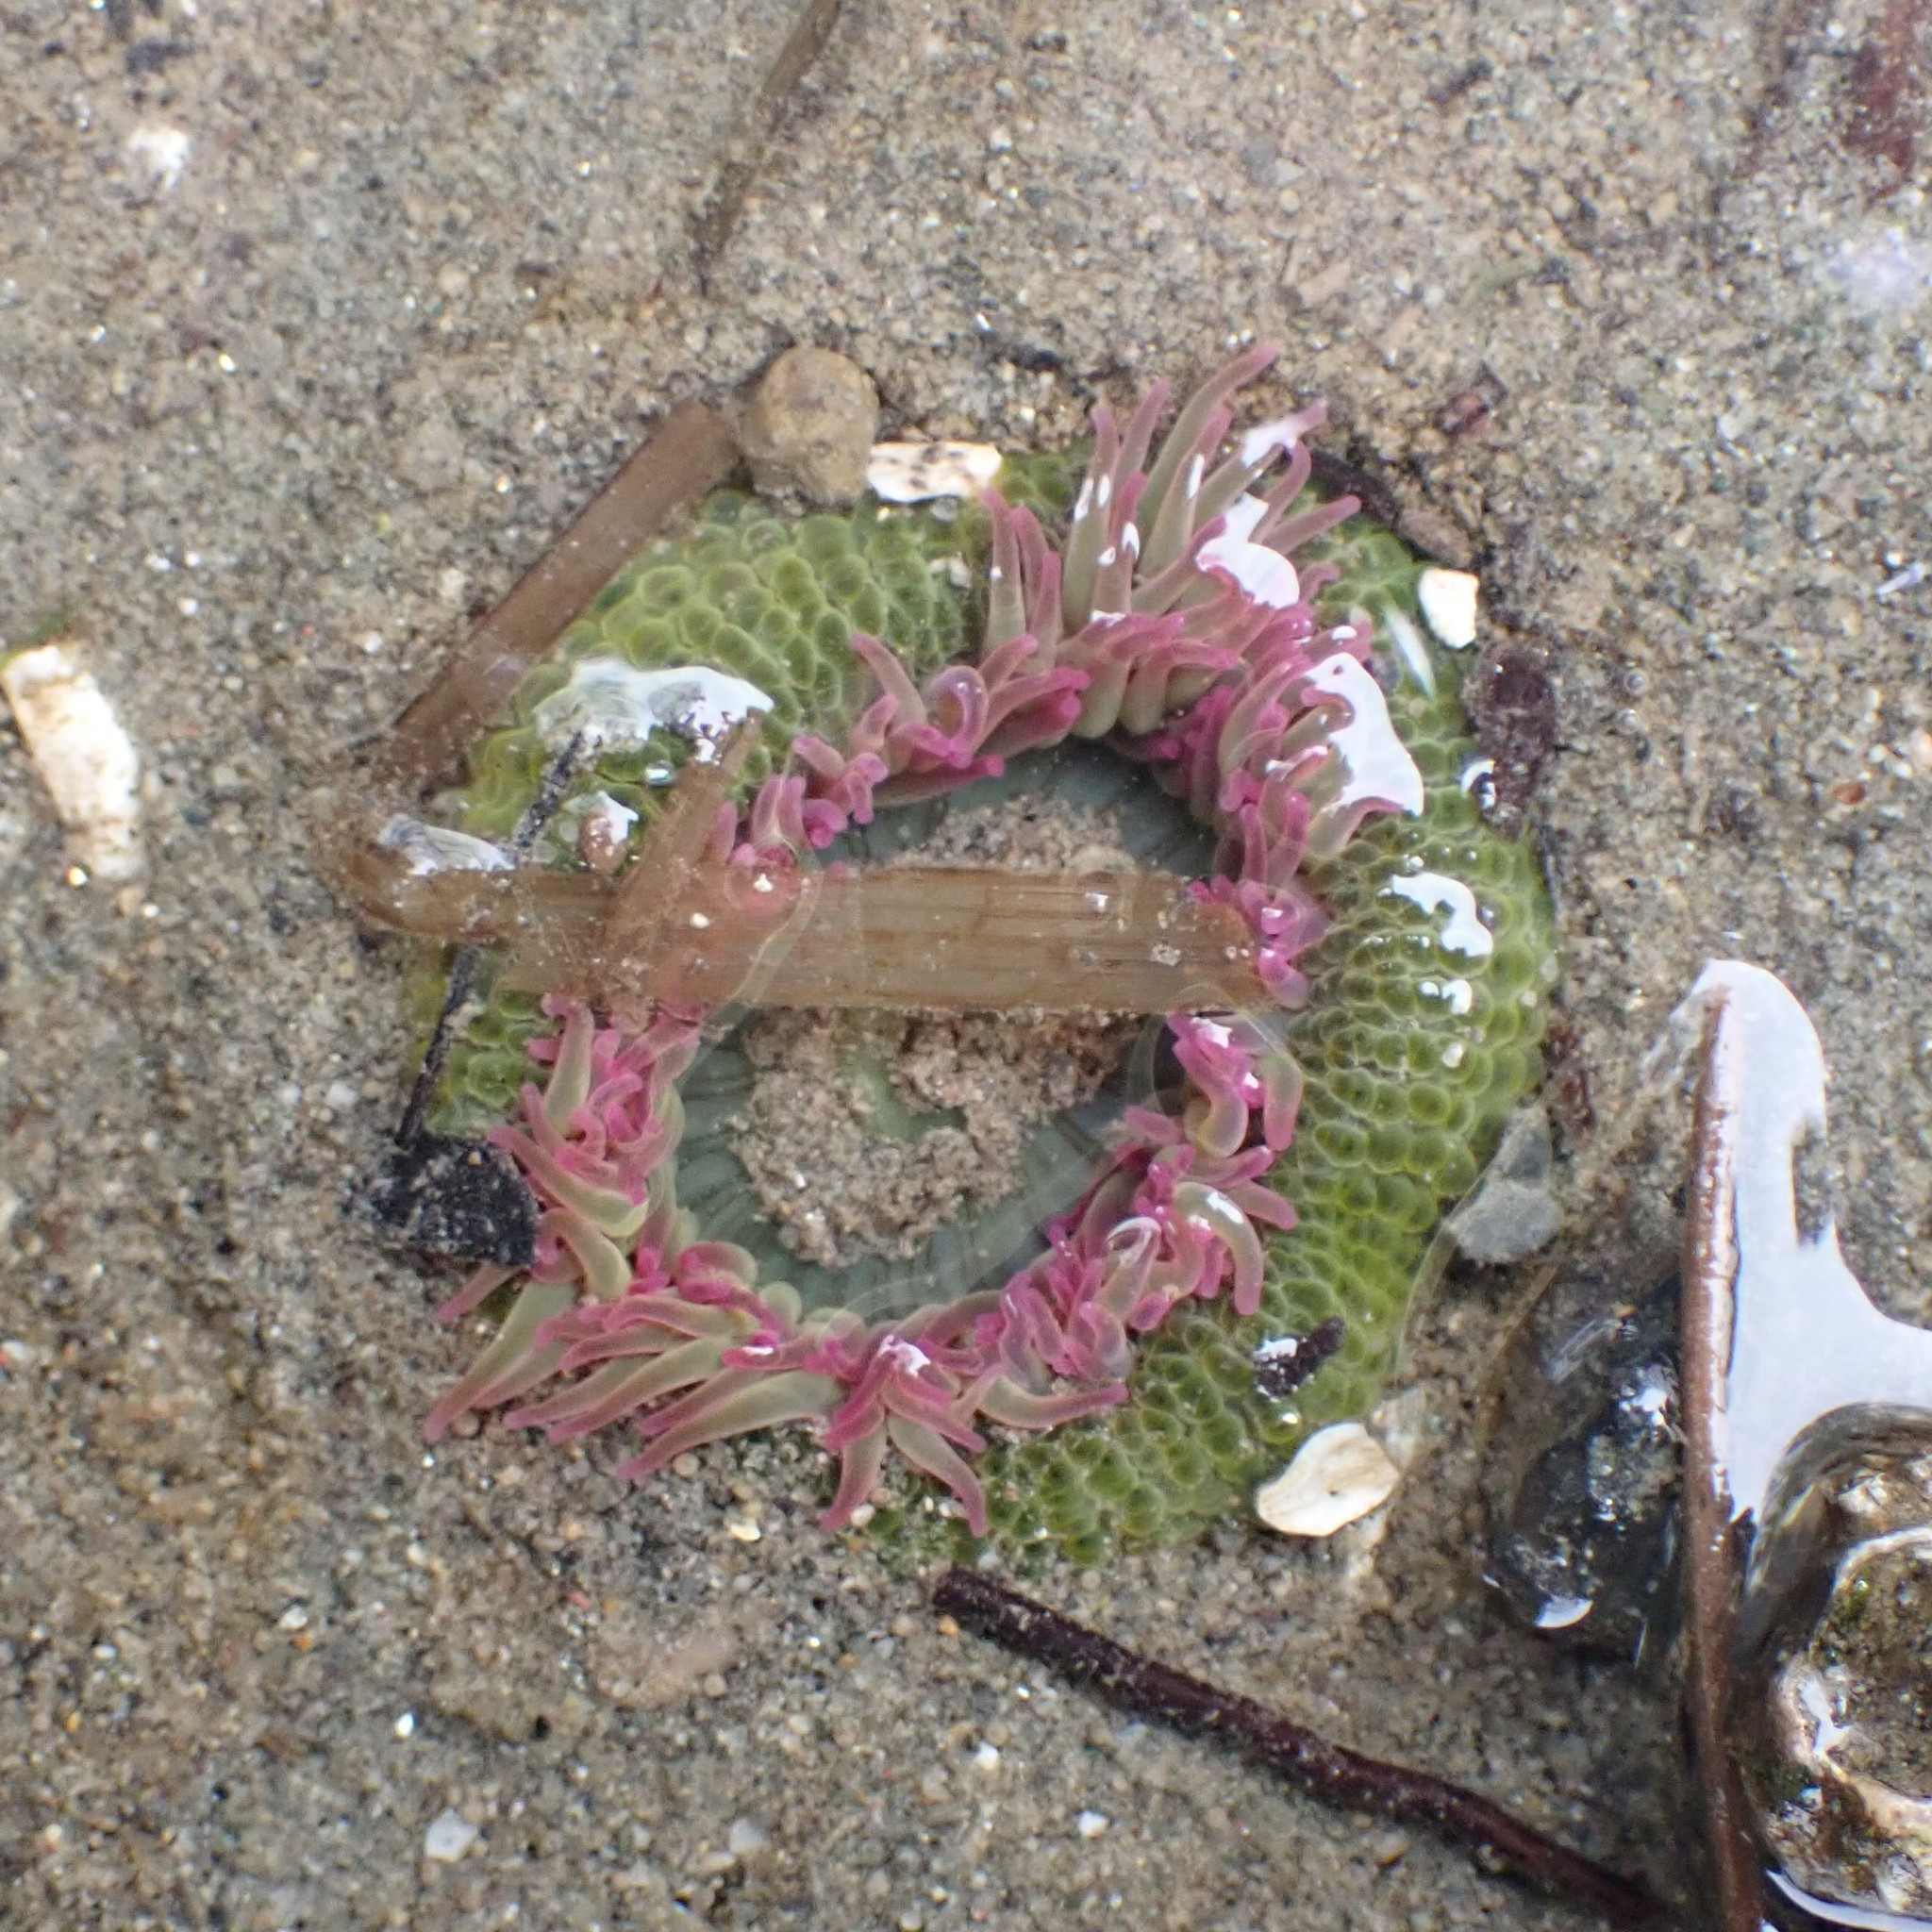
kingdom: Animalia
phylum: Cnidaria
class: Anthozoa
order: Actiniaria
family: Actiniidae
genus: Anthopleura
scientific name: Anthopleura elegantissima
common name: Clonal anemone
